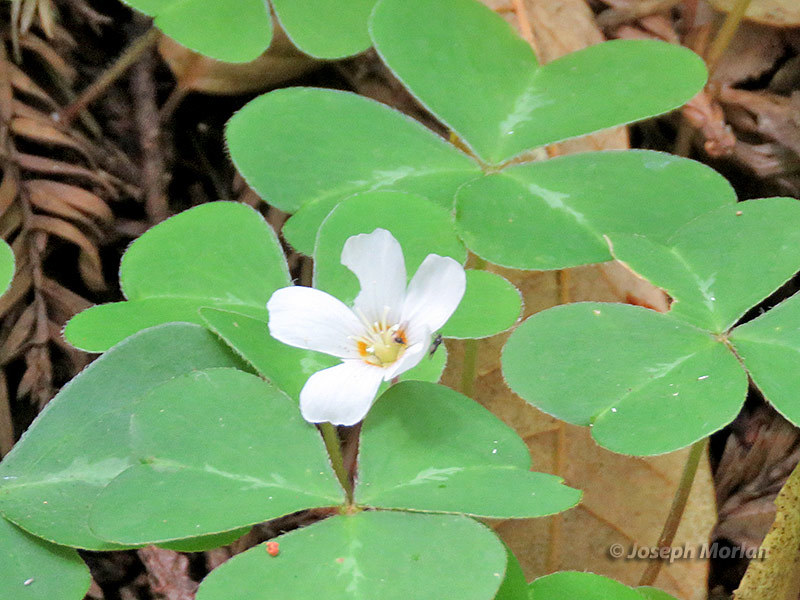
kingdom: Plantae
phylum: Tracheophyta
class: Magnoliopsida
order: Oxalidales
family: Oxalidaceae
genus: Oxalis
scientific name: Oxalis oregana
